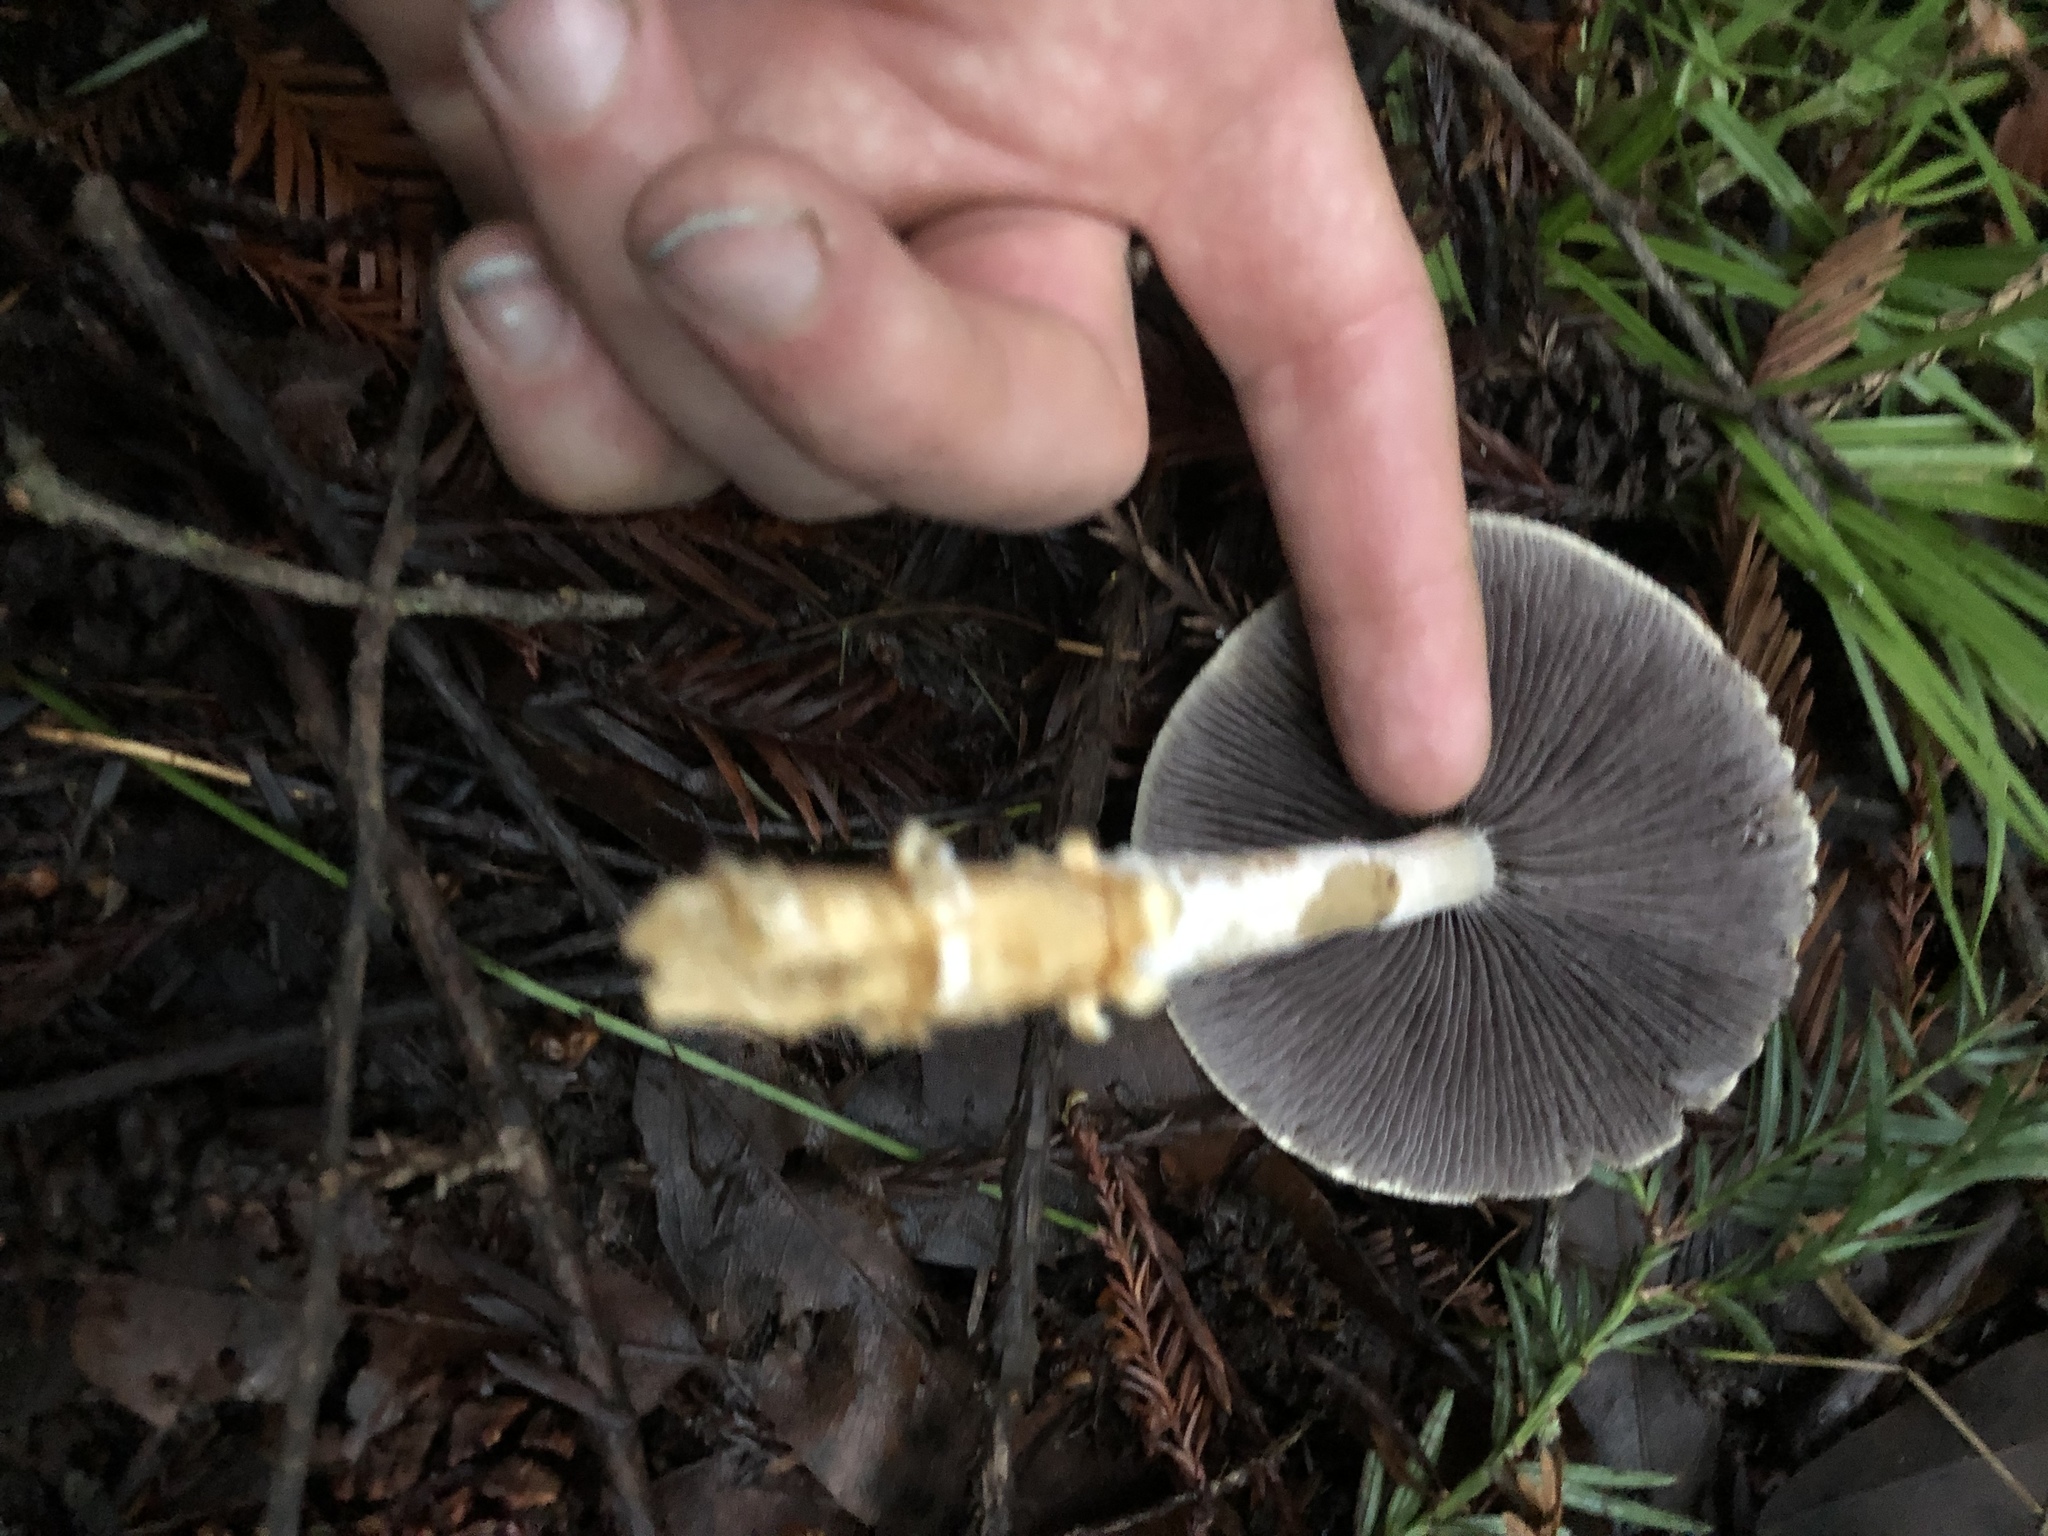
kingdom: Fungi
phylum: Basidiomycota
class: Agaricomycetes
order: Agaricales
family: Strophariaceae
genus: Leratiomyces
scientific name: Leratiomyces percevalii
